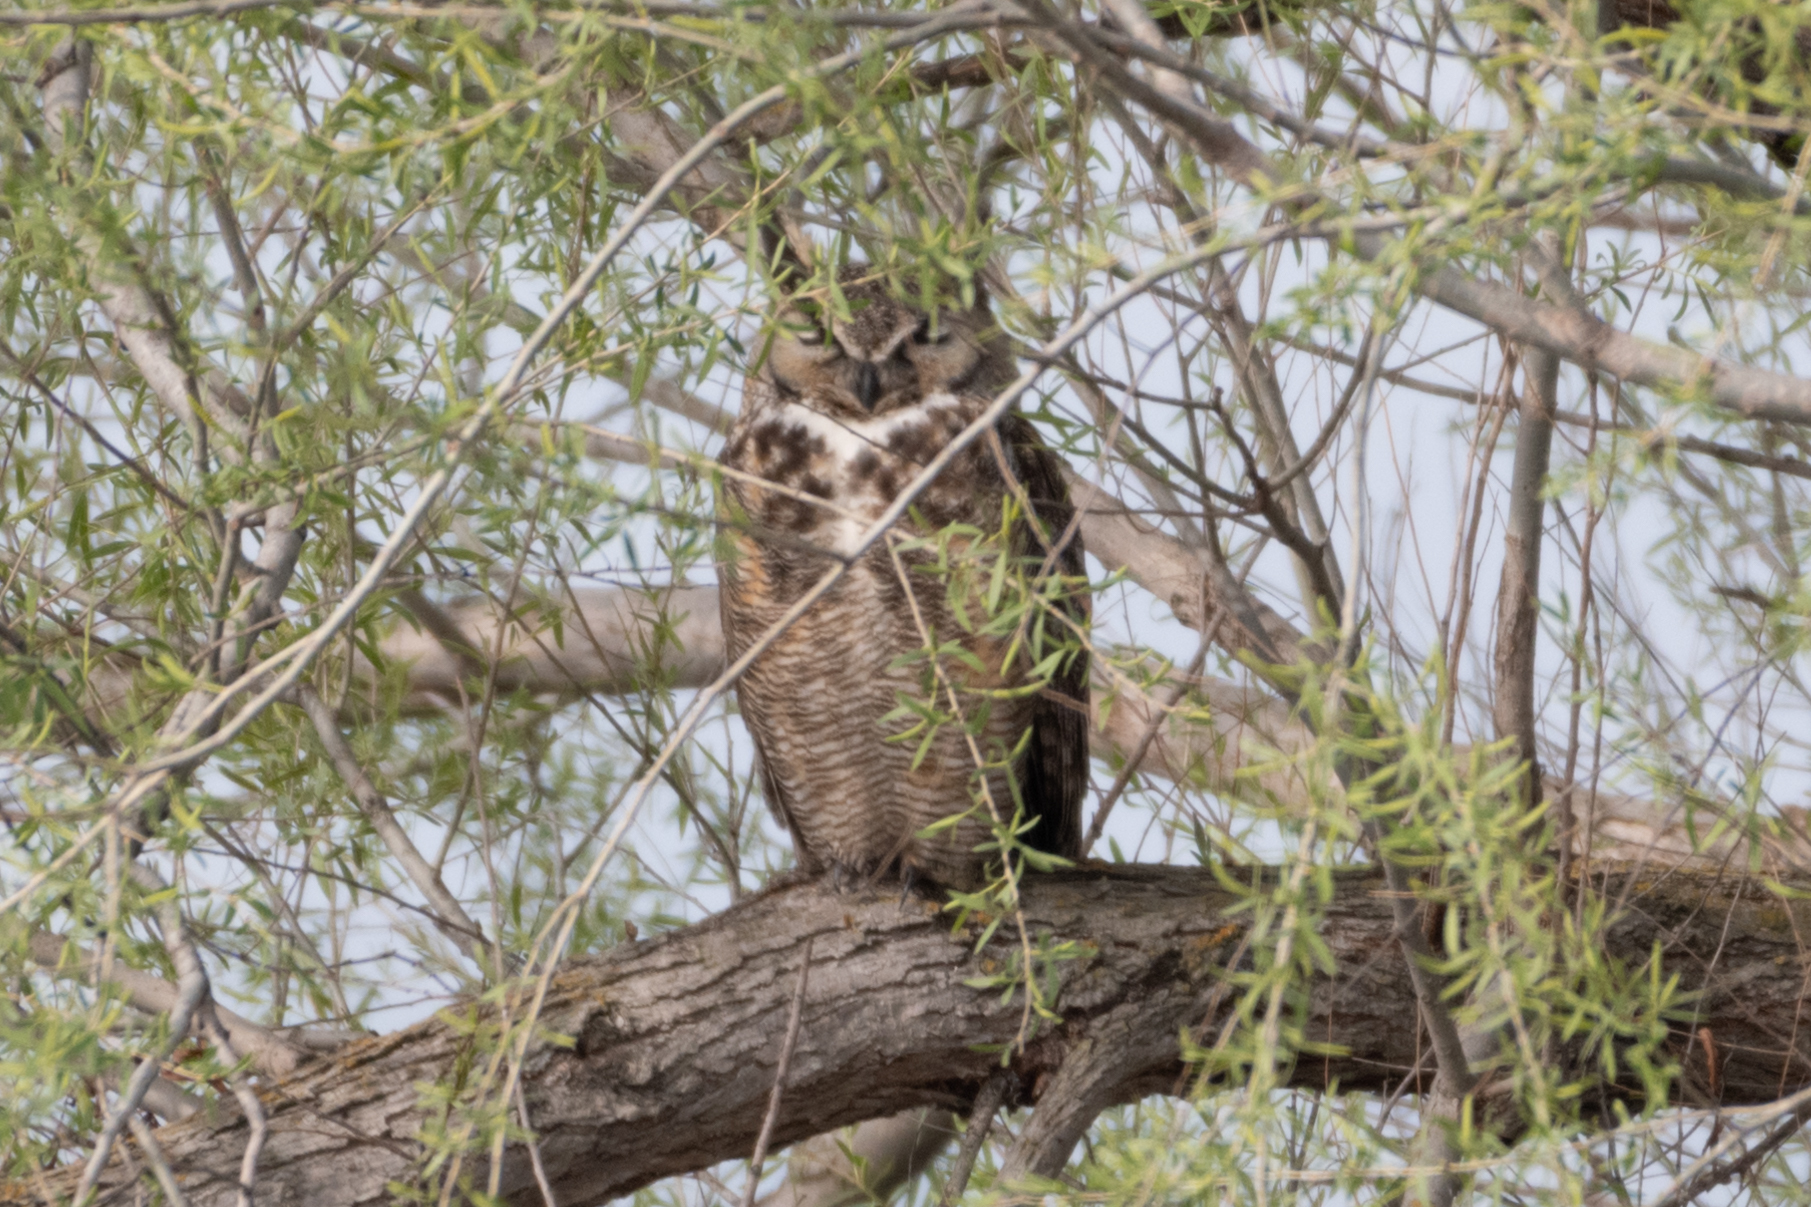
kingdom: Animalia
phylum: Chordata
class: Aves
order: Strigiformes
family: Strigidae
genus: Bubo
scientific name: Bubo virginianus
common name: Great horned owl
